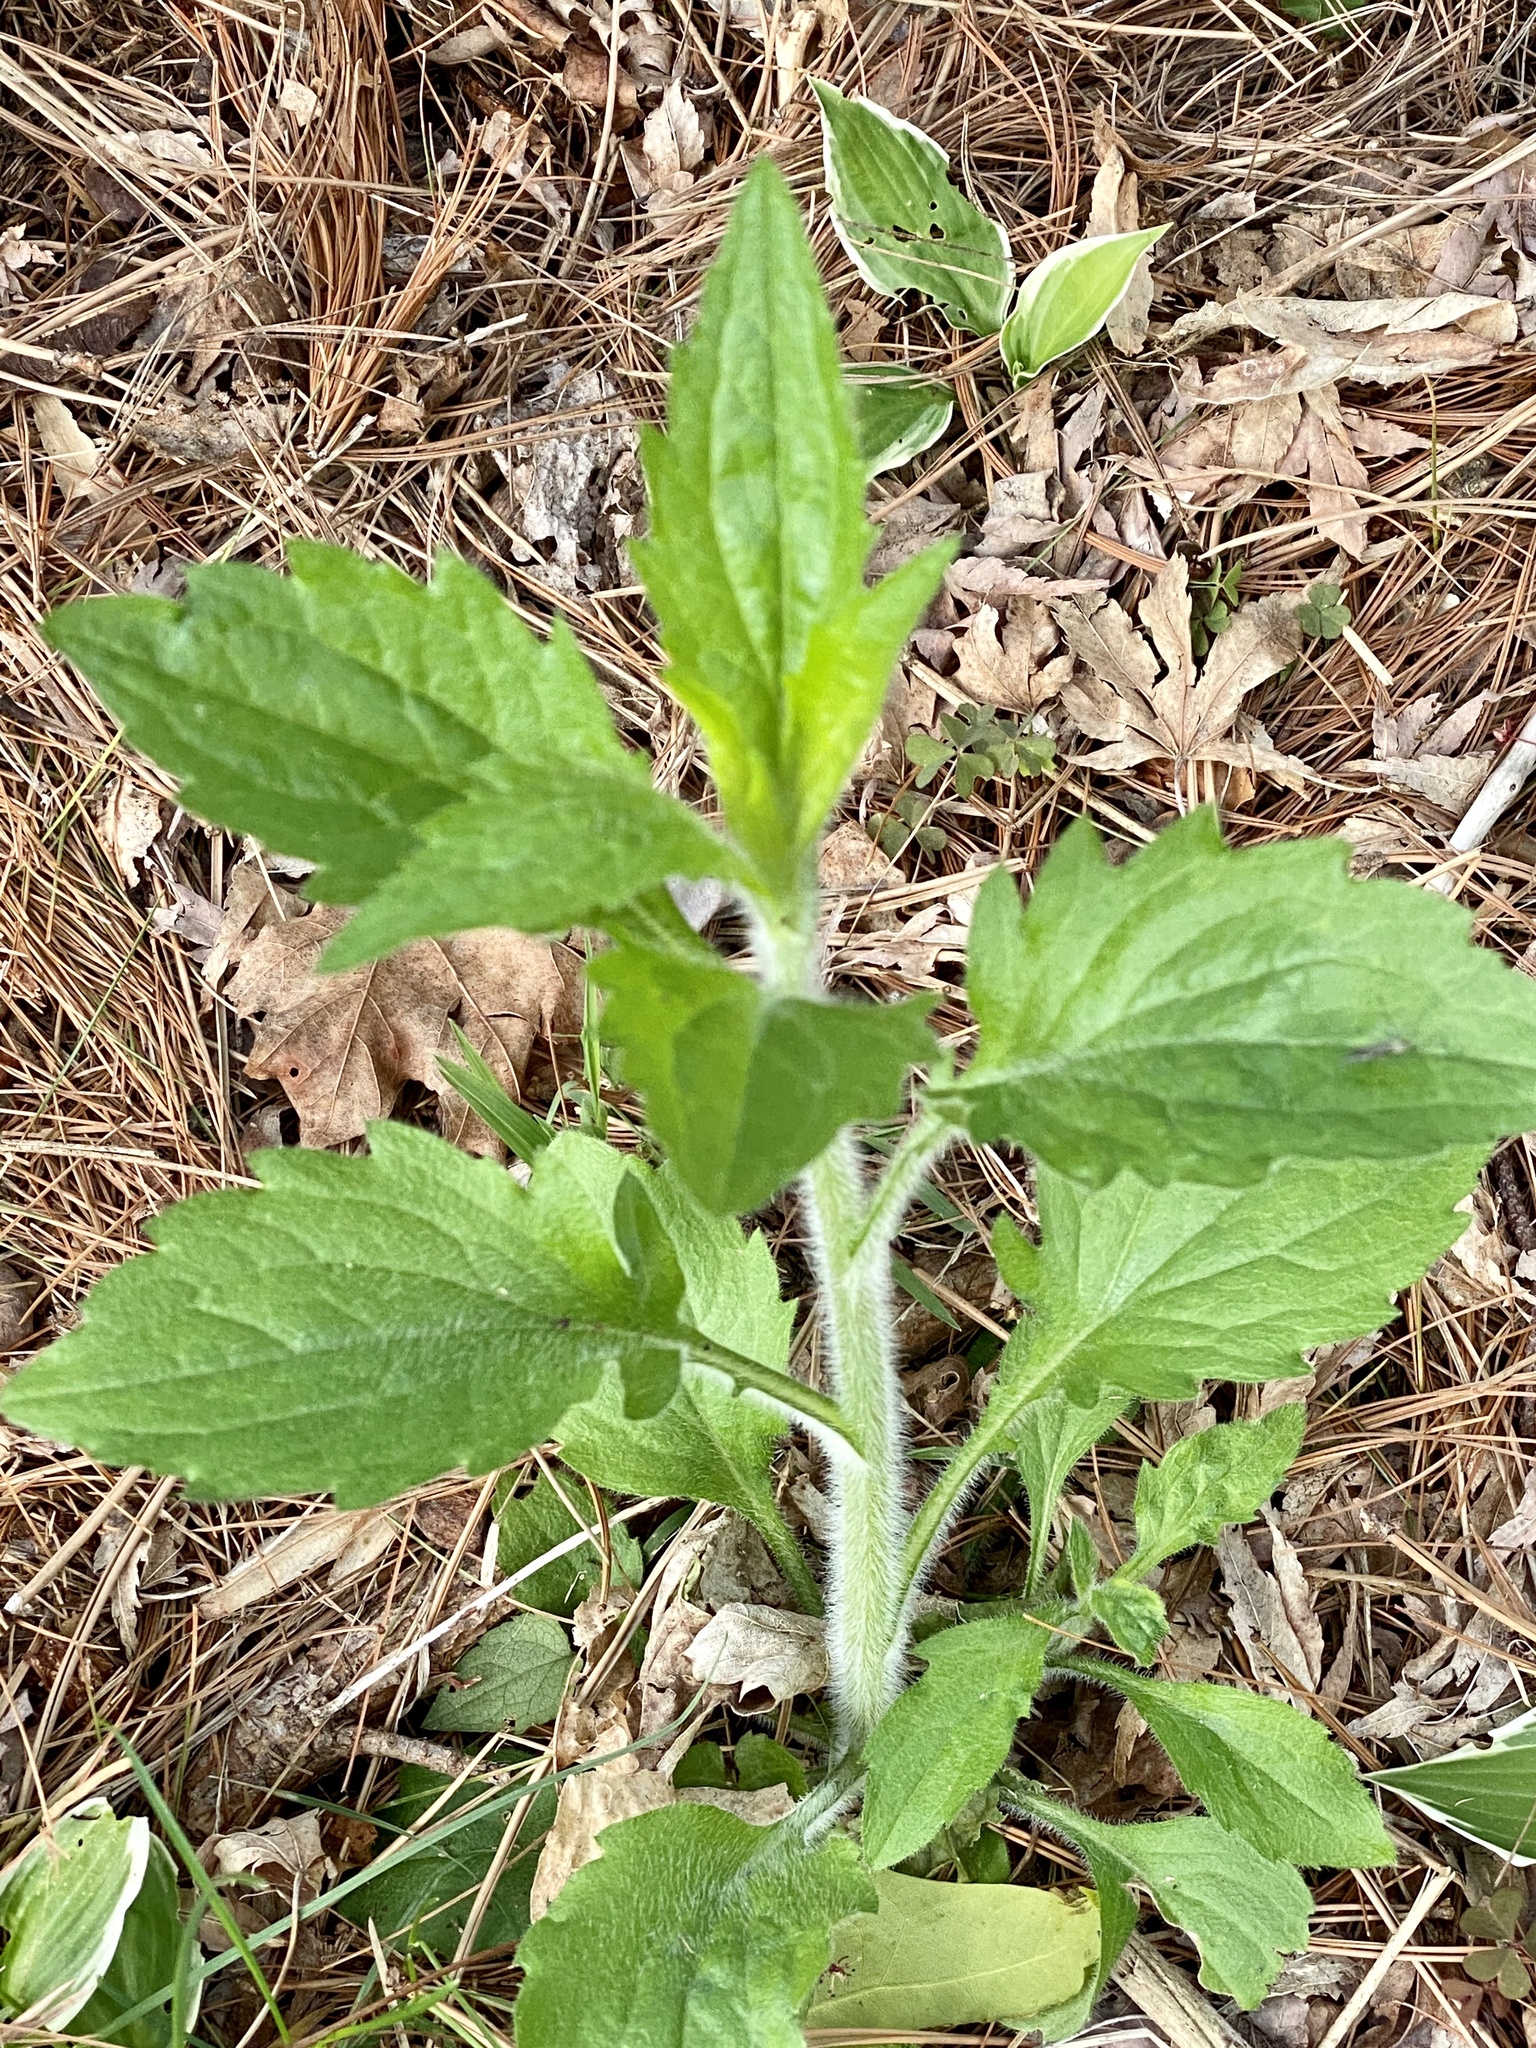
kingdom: Plantae
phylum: Tracheophyta
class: Magnoliopsida
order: Asterales
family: Asteraceae
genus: Erigeron
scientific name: Erigeron annuus
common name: Tall fleabane
